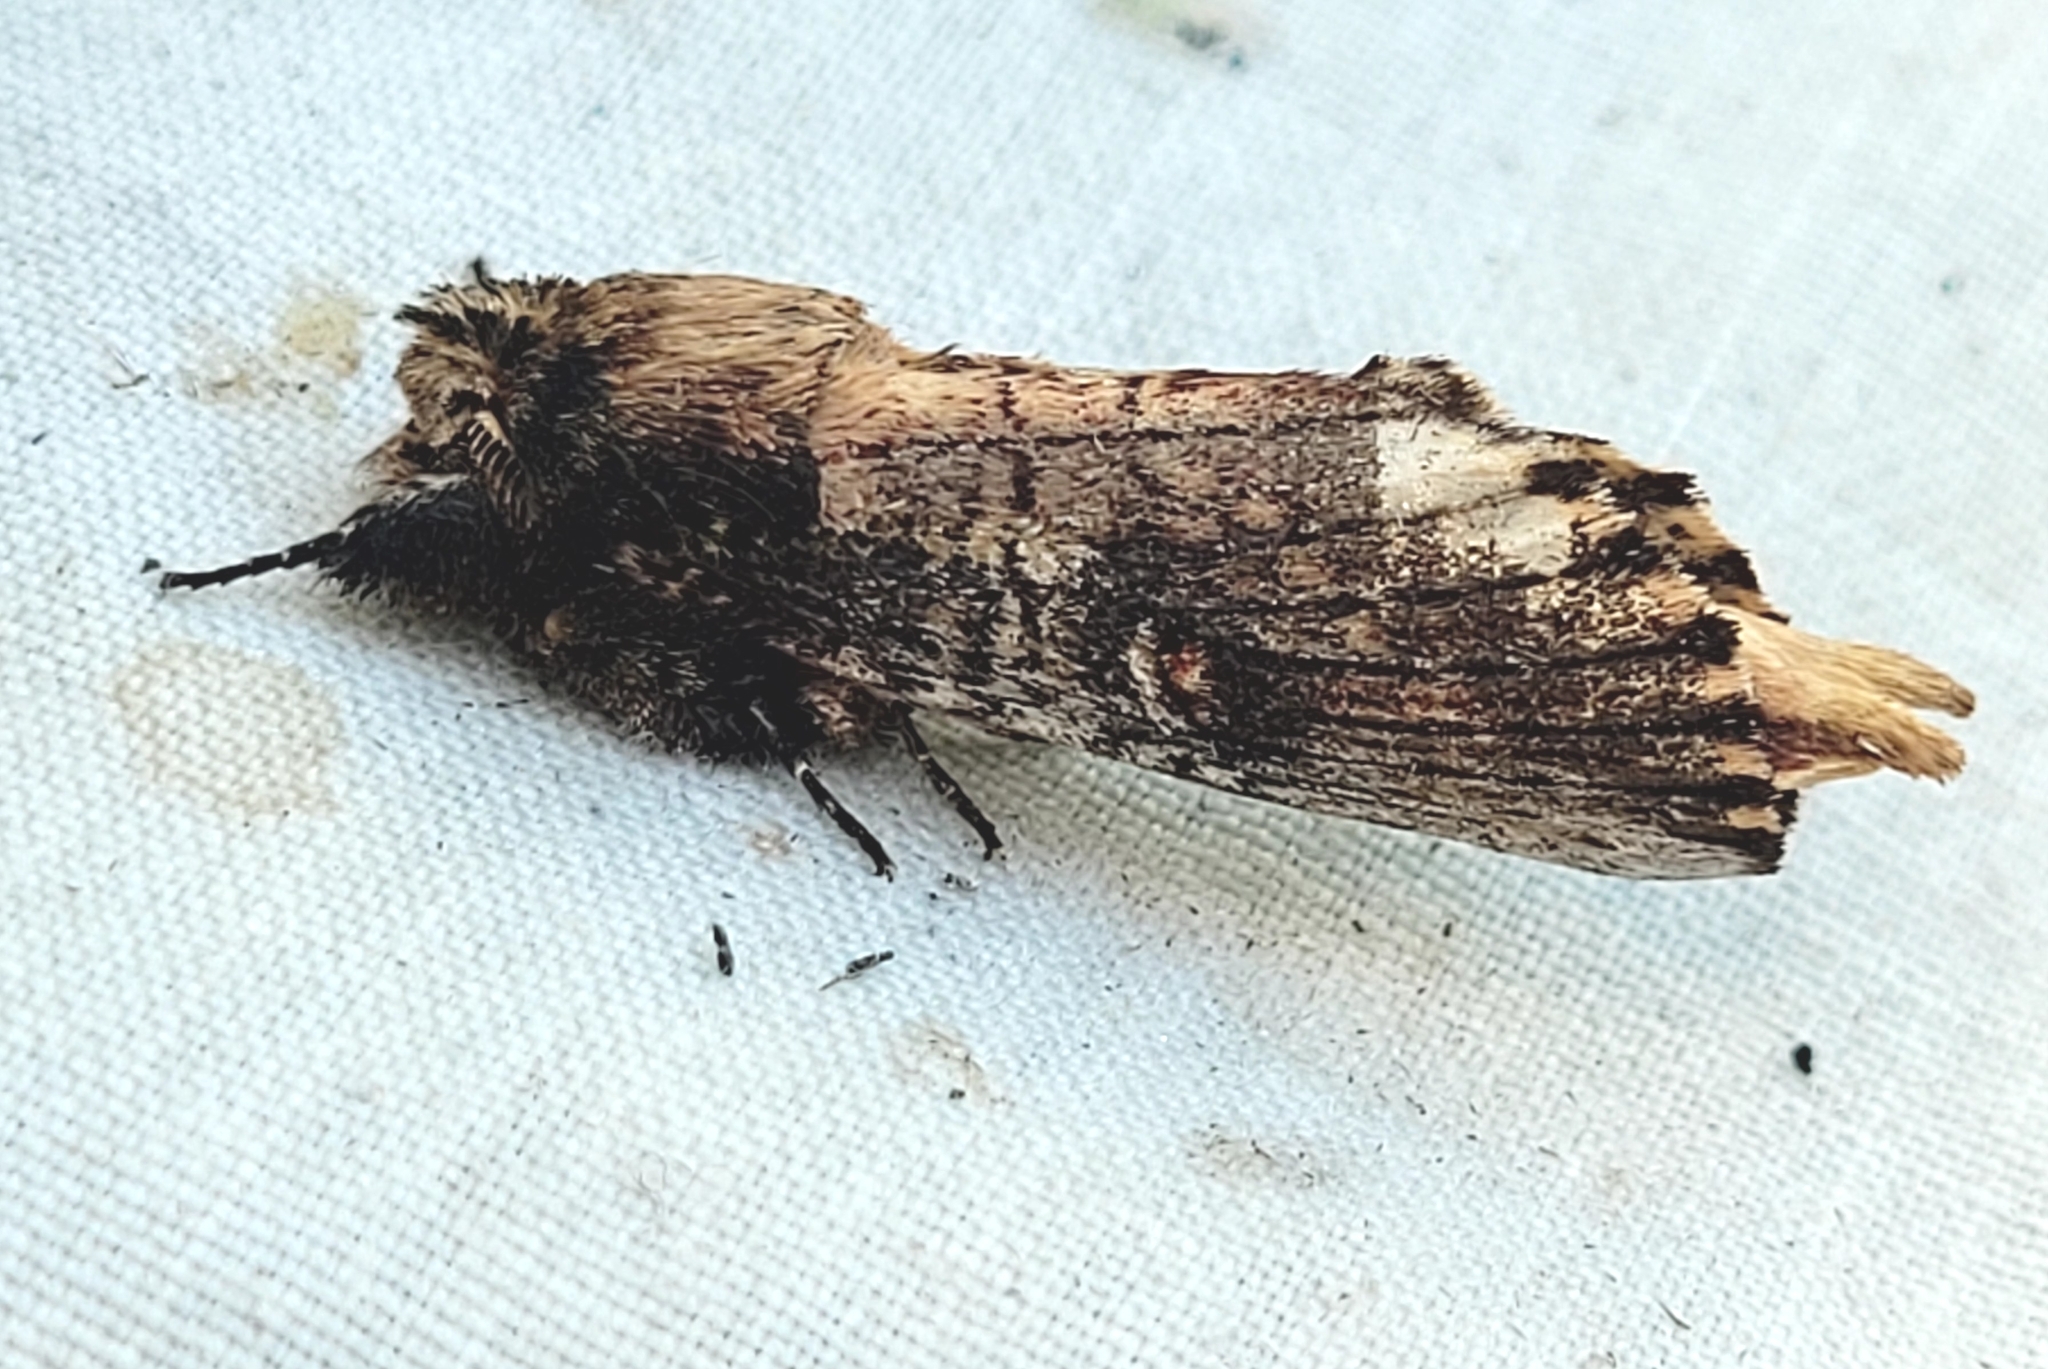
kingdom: Animalia
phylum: Arthropoda
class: Insecta
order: Lepidoptera
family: Notodontidae
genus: Schizura
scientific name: Schizura ipomaeae
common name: Morning-glory prominent
